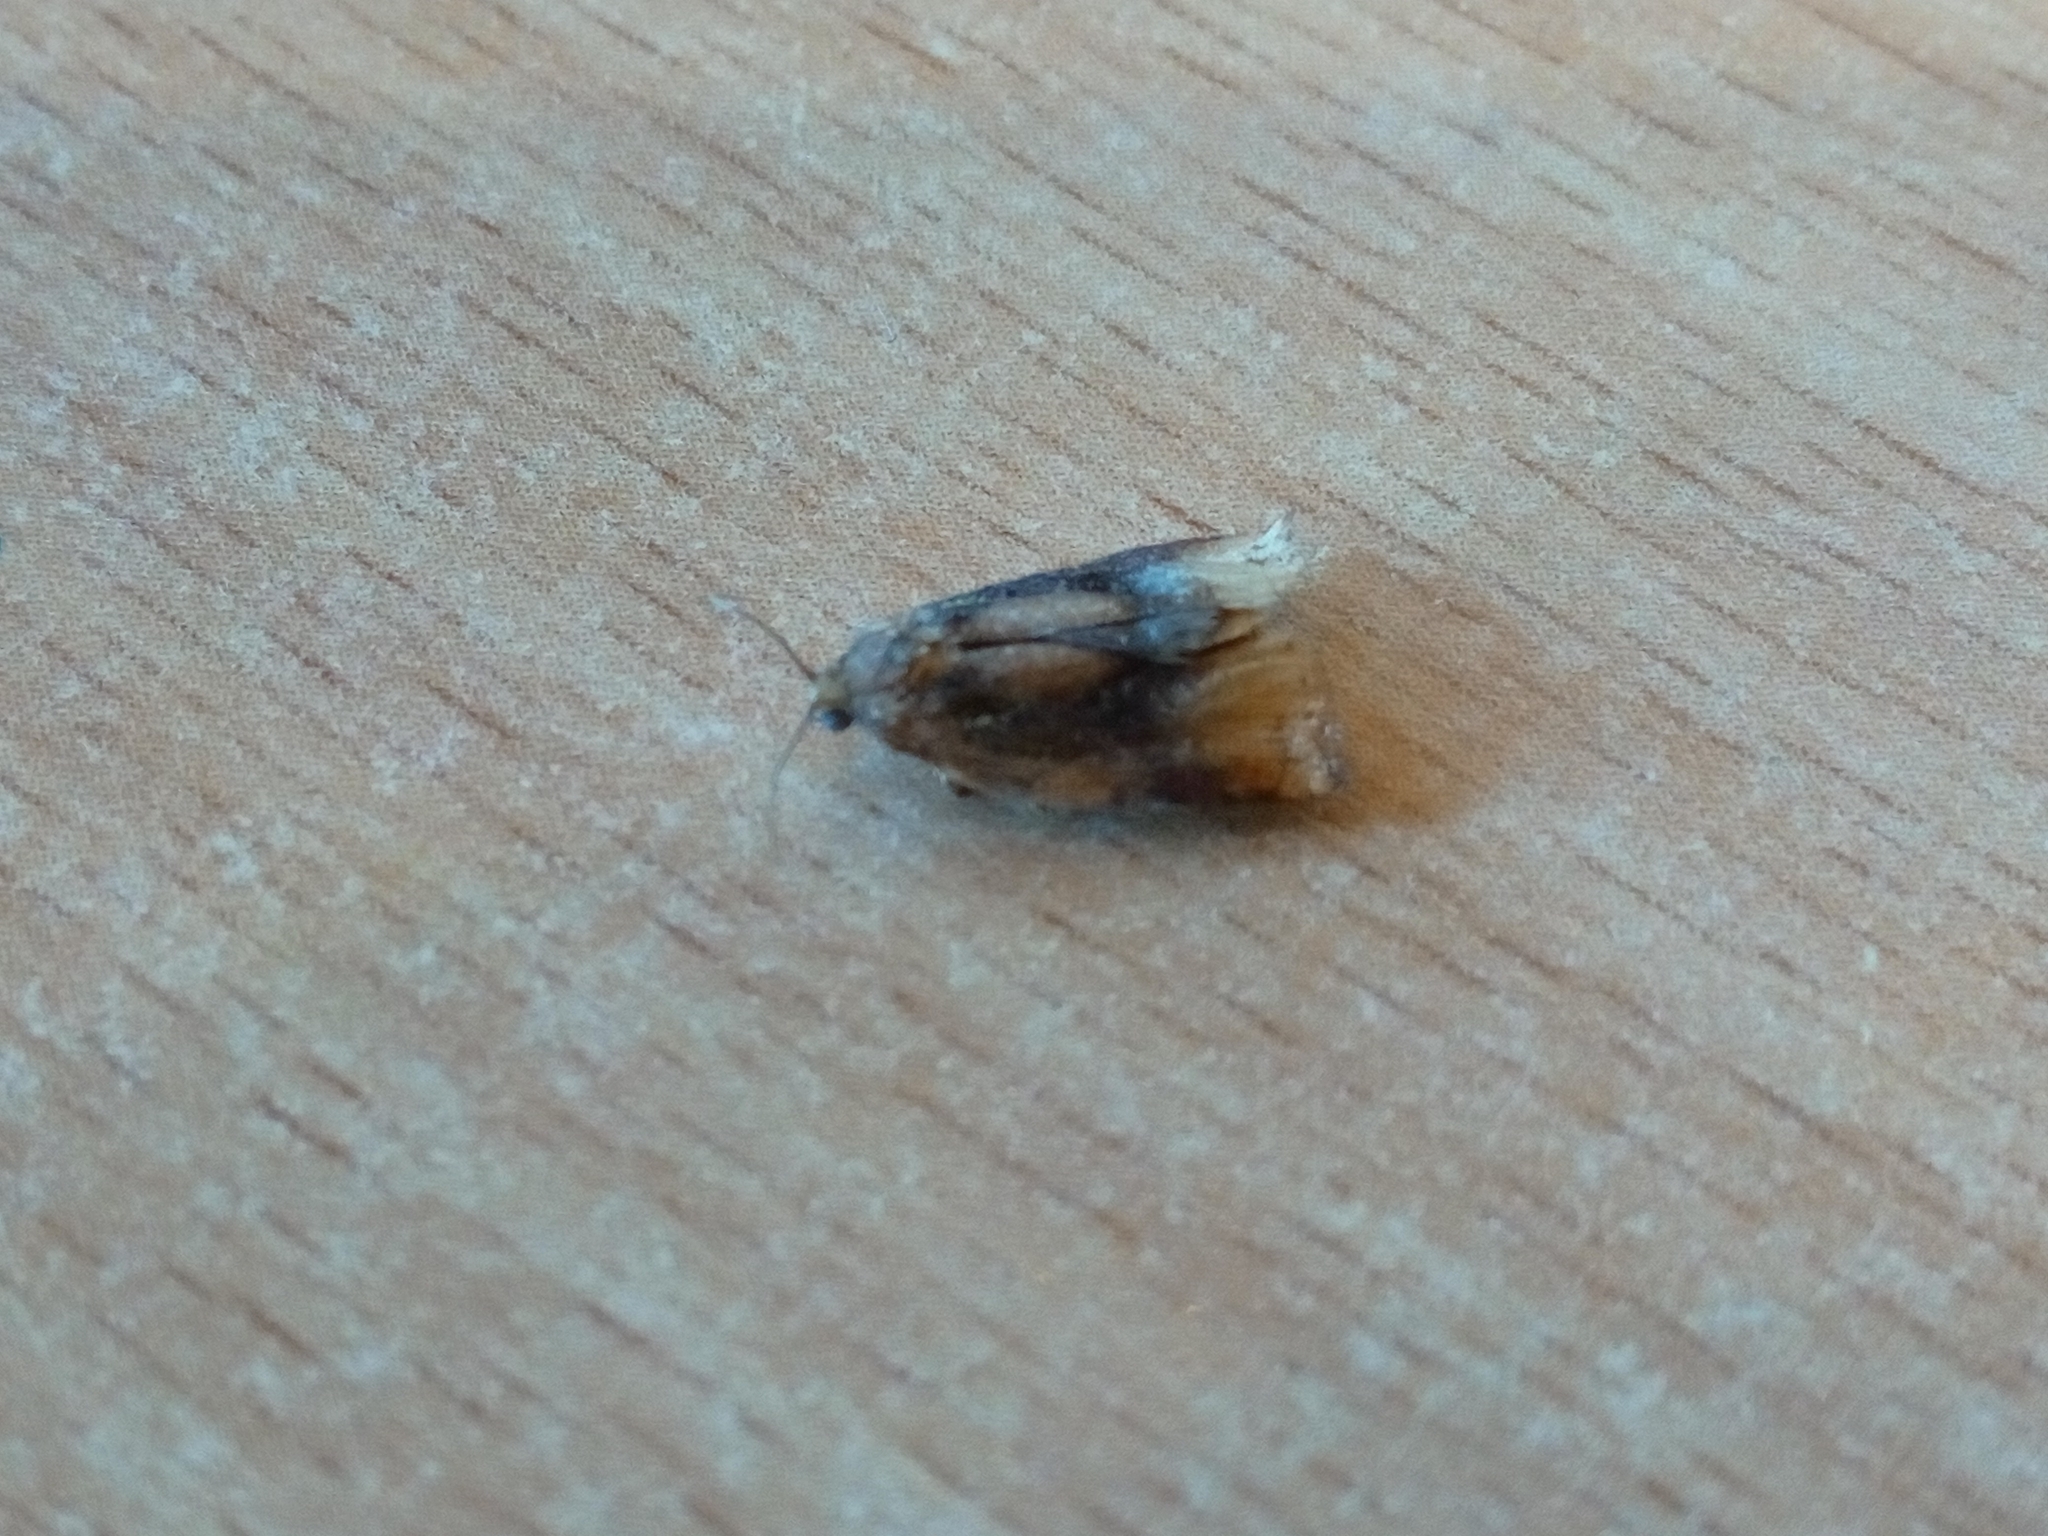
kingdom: Animalia
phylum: Arthropoda
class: Insecta
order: Lepidoptera
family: Tortricidae
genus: Archips
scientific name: Archips podana
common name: Large fruit-tree tortrix
